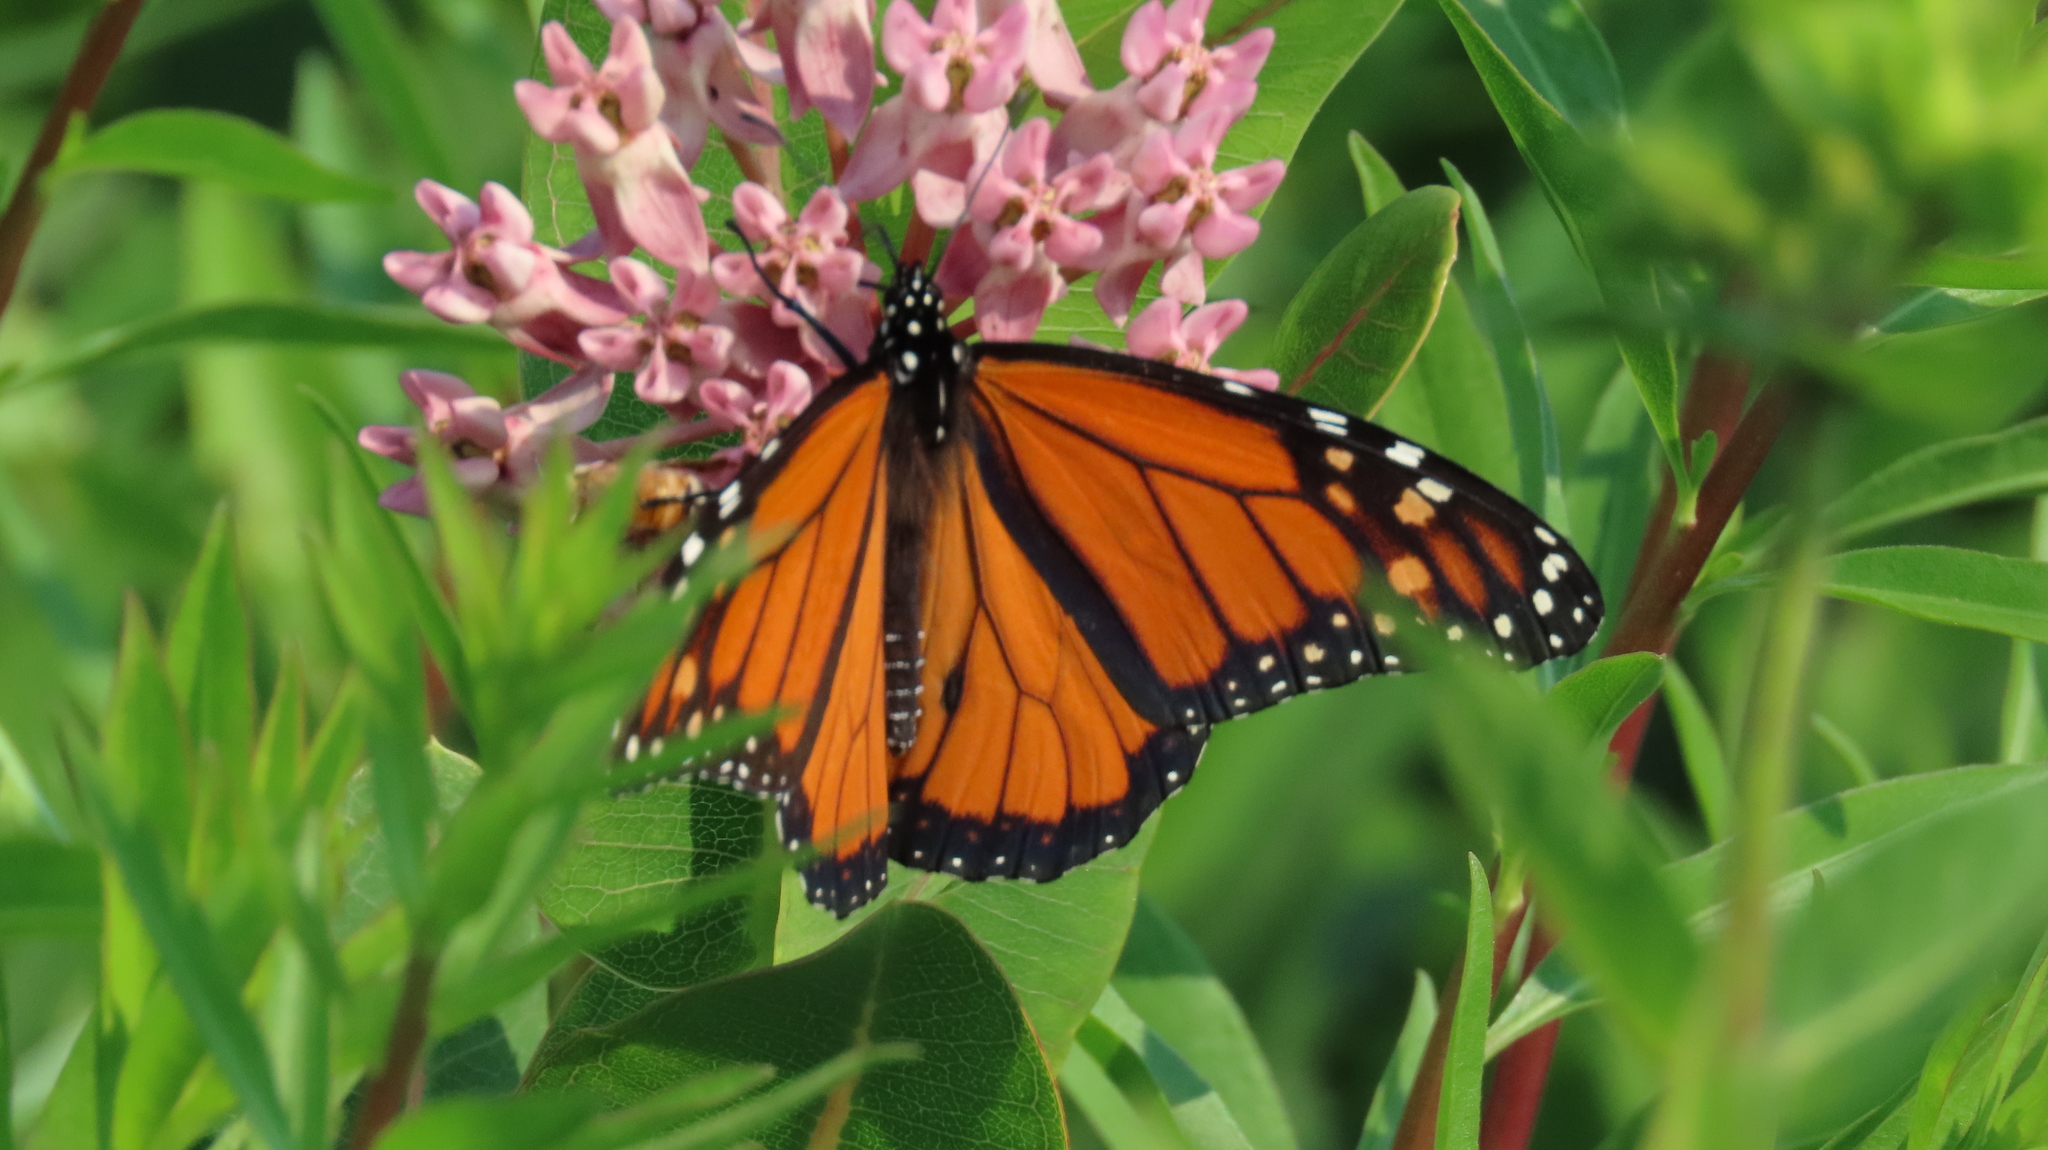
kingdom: Animalia
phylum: Arthropoda
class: Insecta
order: Lepidoptera
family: Nymphalidae
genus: Danaus
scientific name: Danaus plexippus
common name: Monarch
